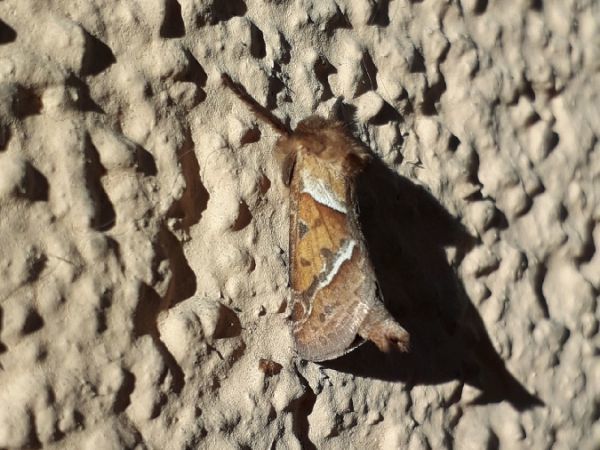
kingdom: Animalia
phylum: Arthropoda
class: Insecta
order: Lepidoptera
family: Hepialidae
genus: Triodia
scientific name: Triodia sylvina
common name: Orange swift
